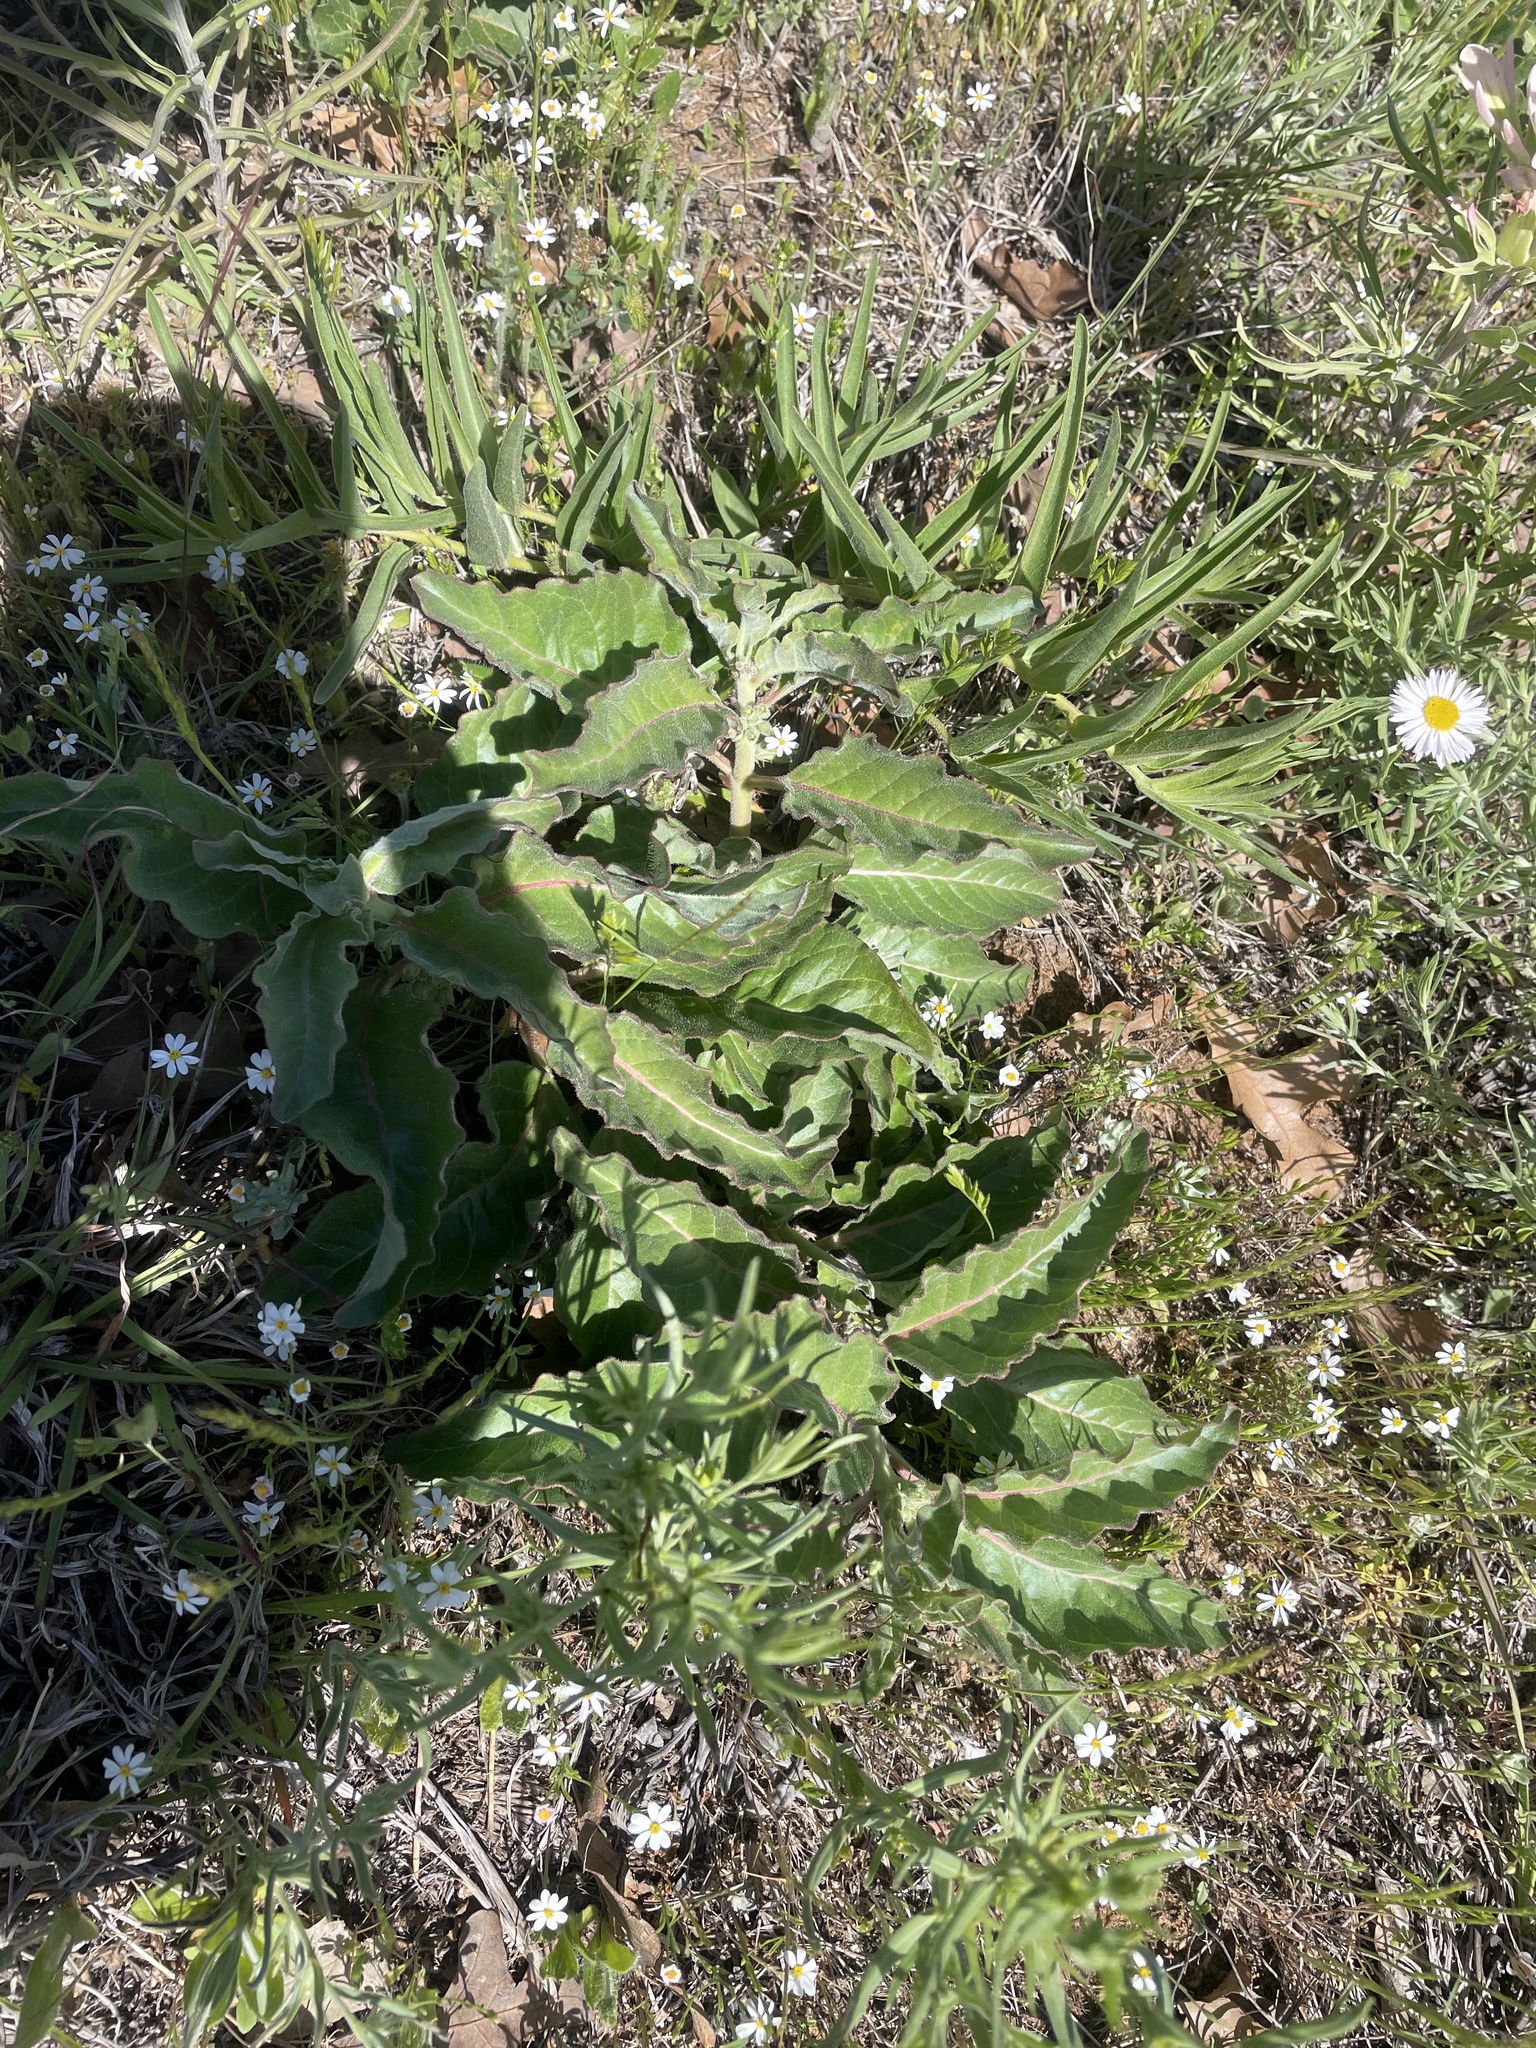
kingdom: Plantae
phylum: Tracheophyta
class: Magnoliopsida
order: Gentianales
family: Apocynaceae
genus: Asclepias
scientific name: Asclepias oenotheroides
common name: Zizotes milkweed
